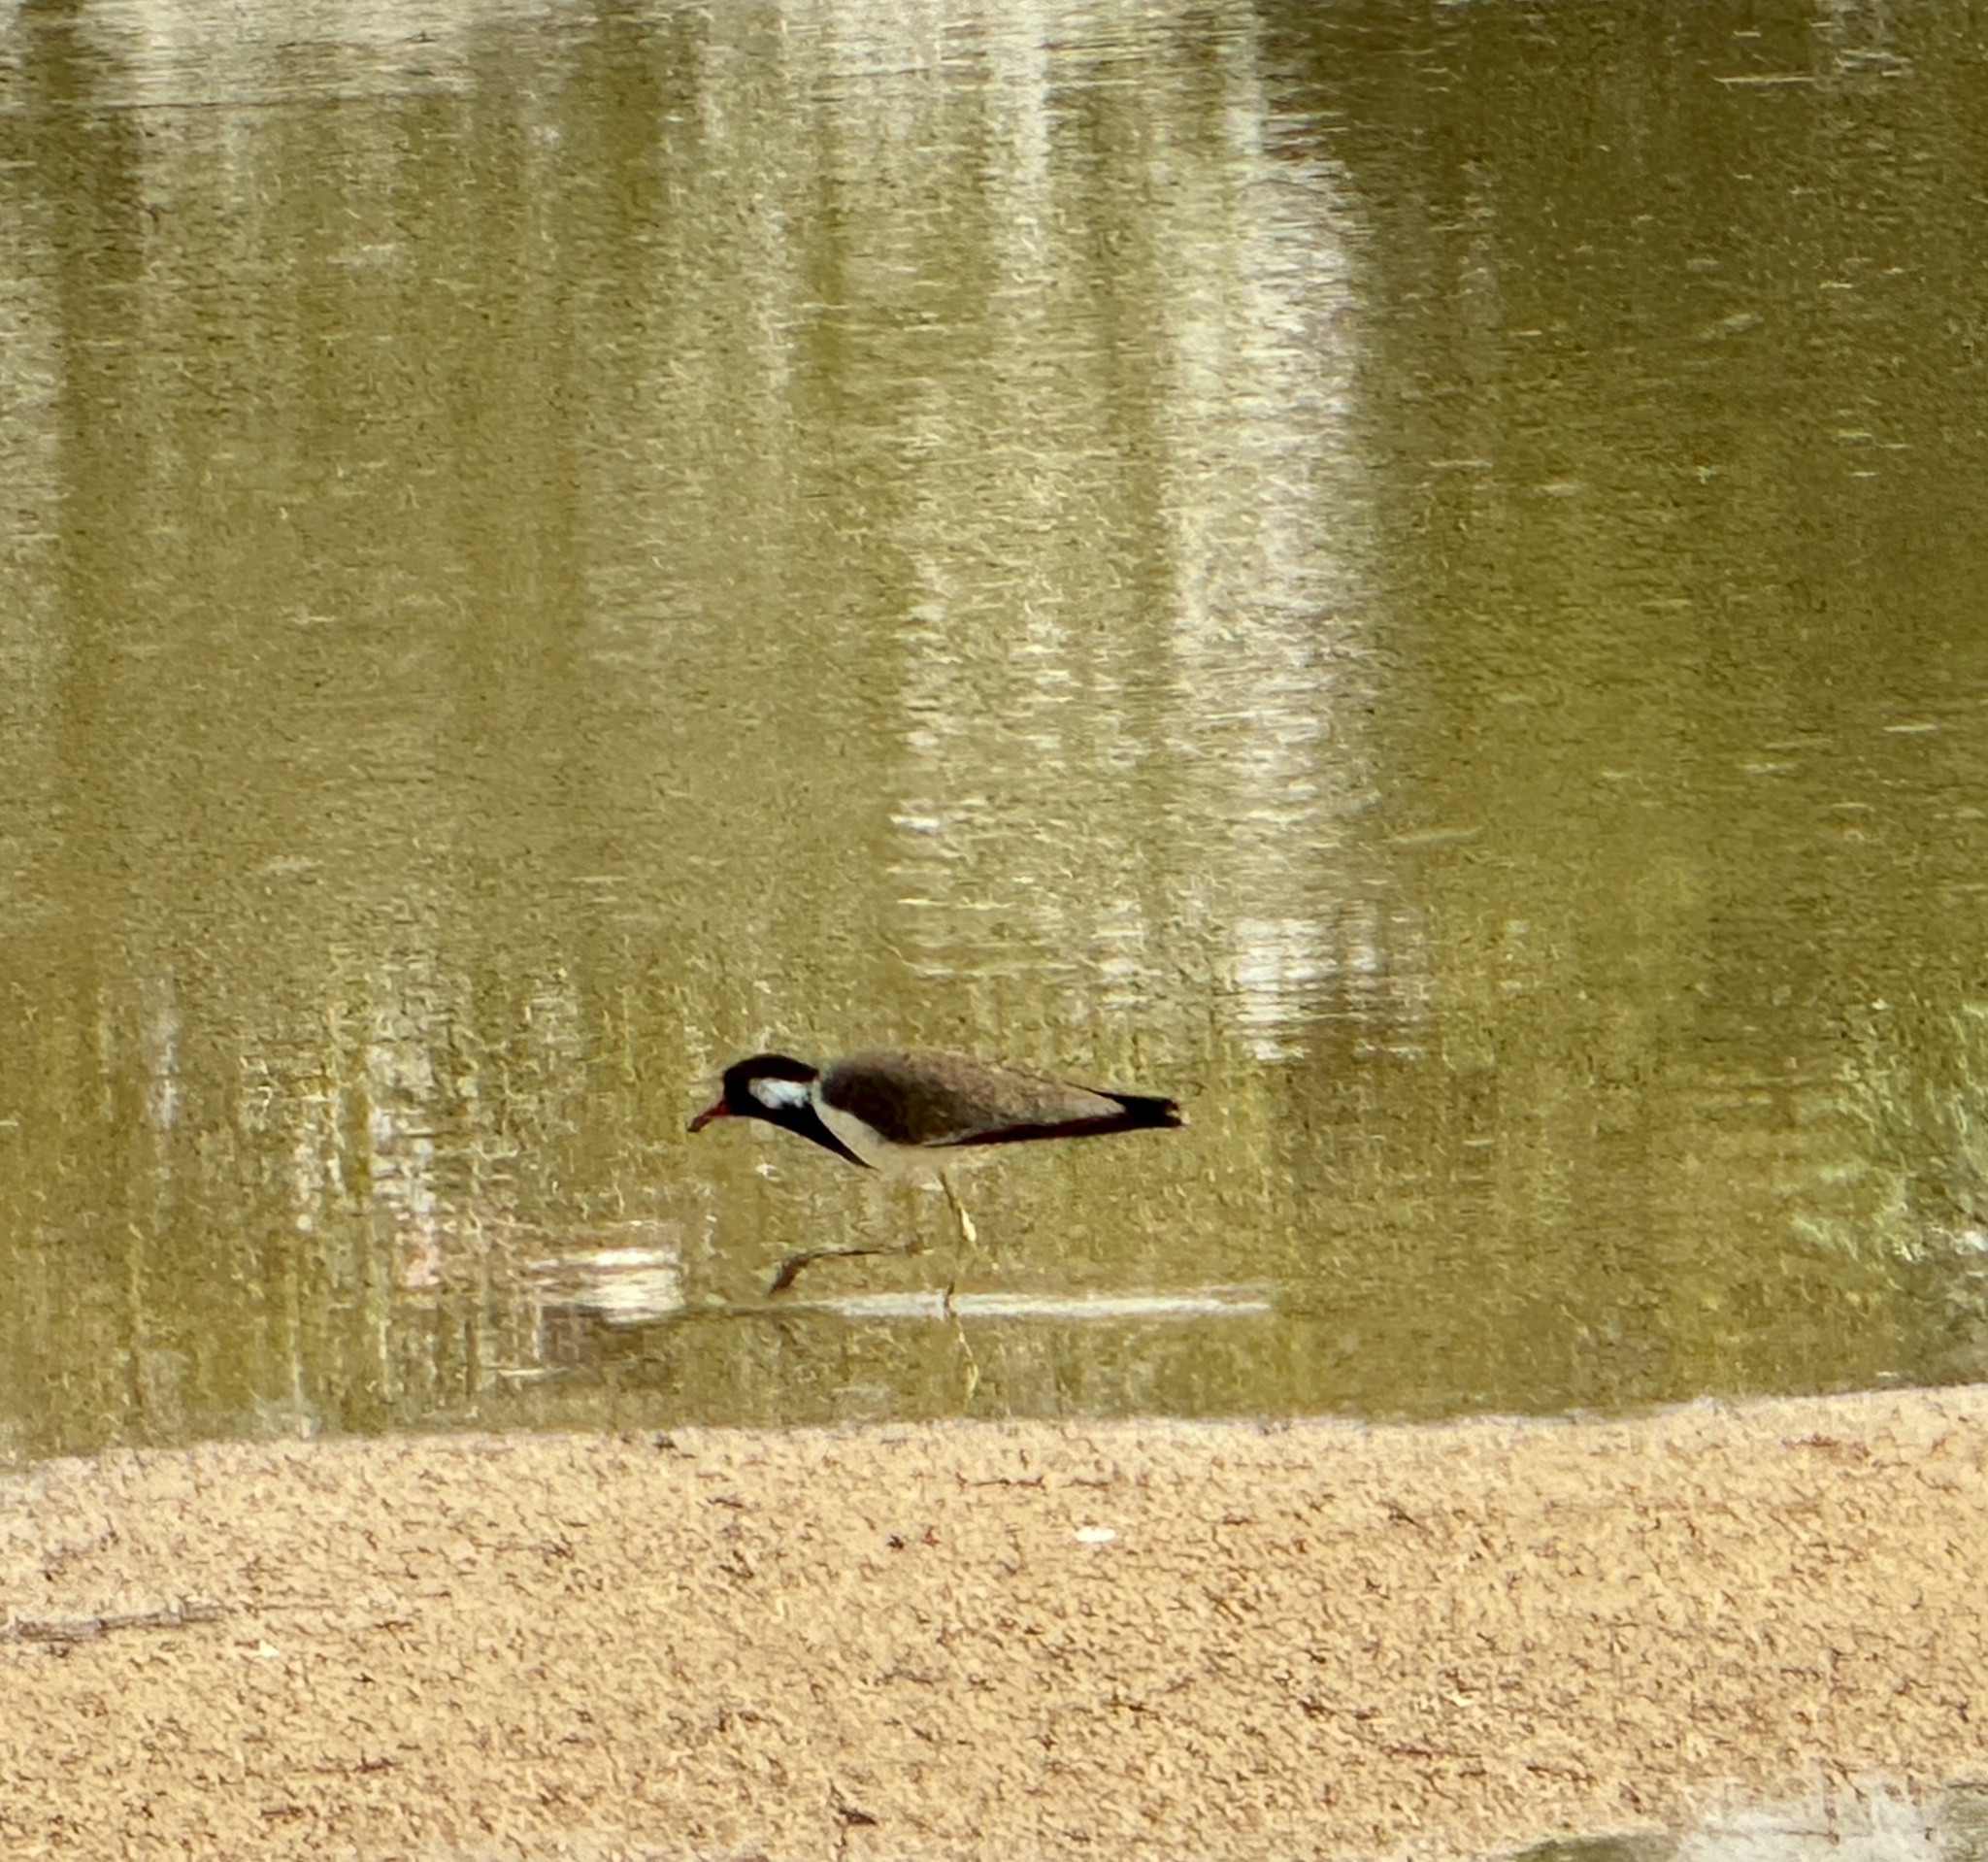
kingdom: Animalia
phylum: Chordata
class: Aves
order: Charadriiformes
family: Charadriidae
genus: Vanellus
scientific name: Vanellus indicus
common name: Red-wattled lapwing
